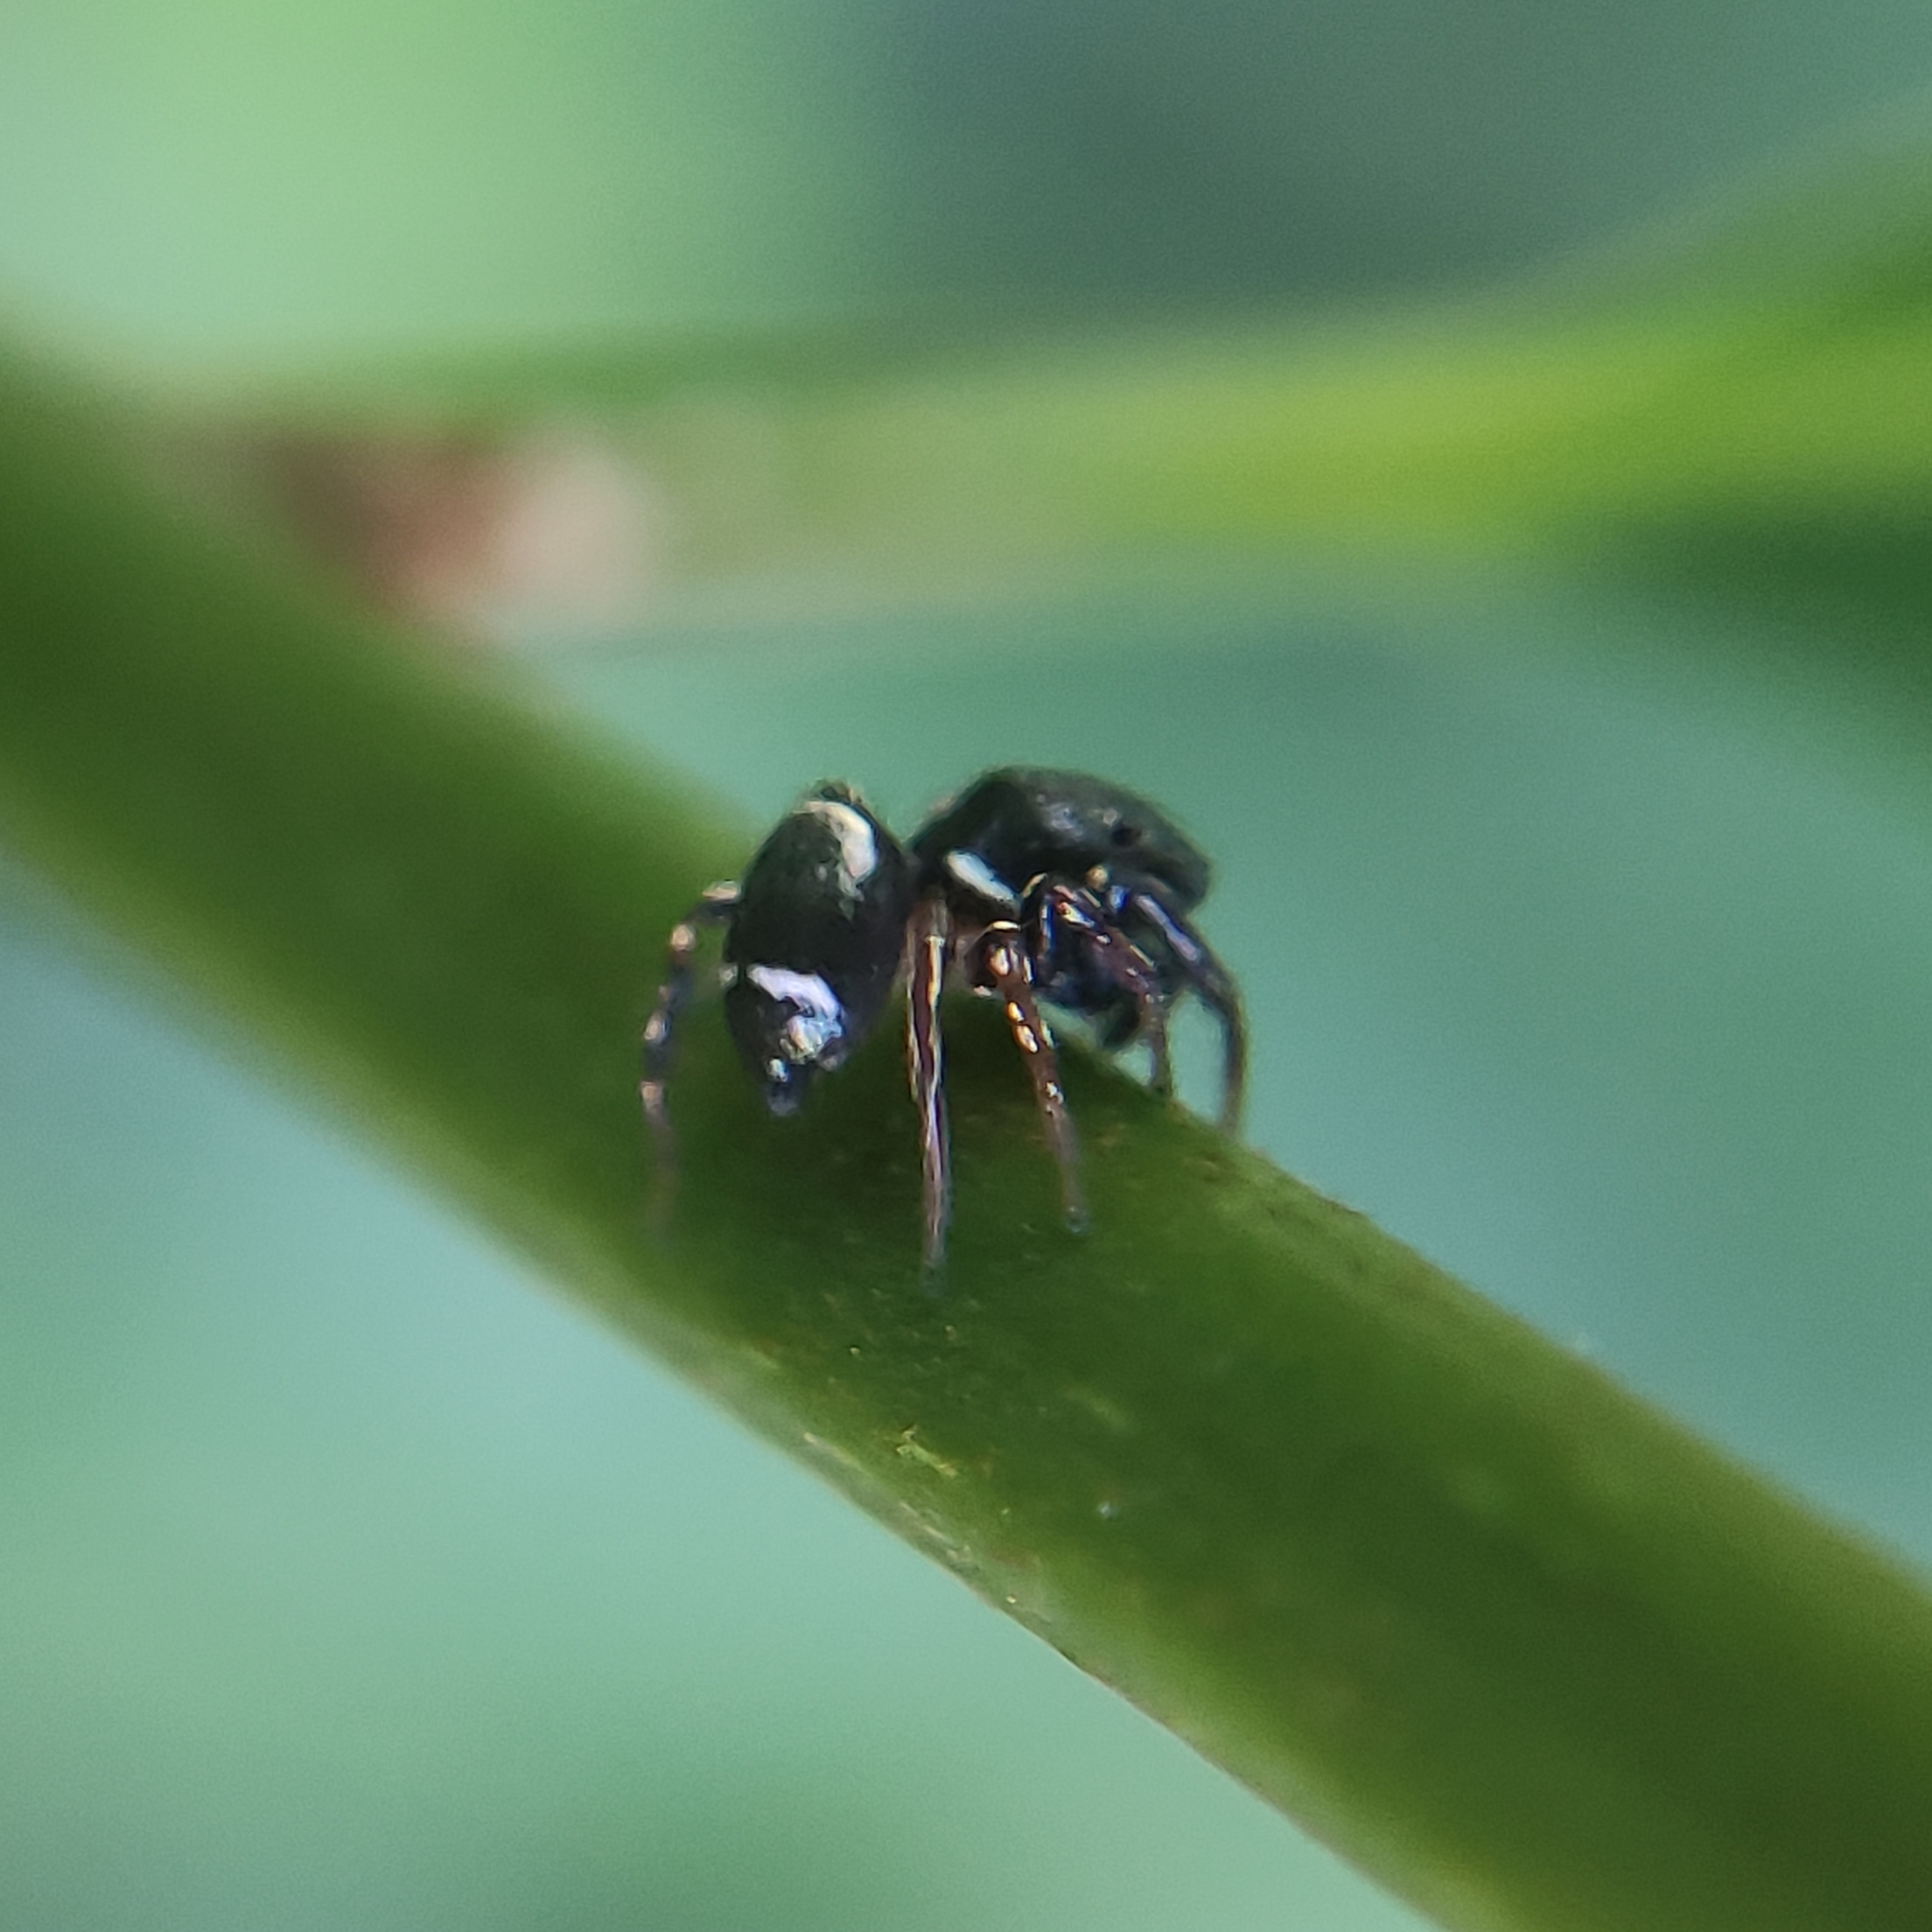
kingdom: Animalia
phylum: Arthropoda
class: Arachnida
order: Araneae
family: Salticidae
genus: Heliophanus
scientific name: Heliophanus hamifer
